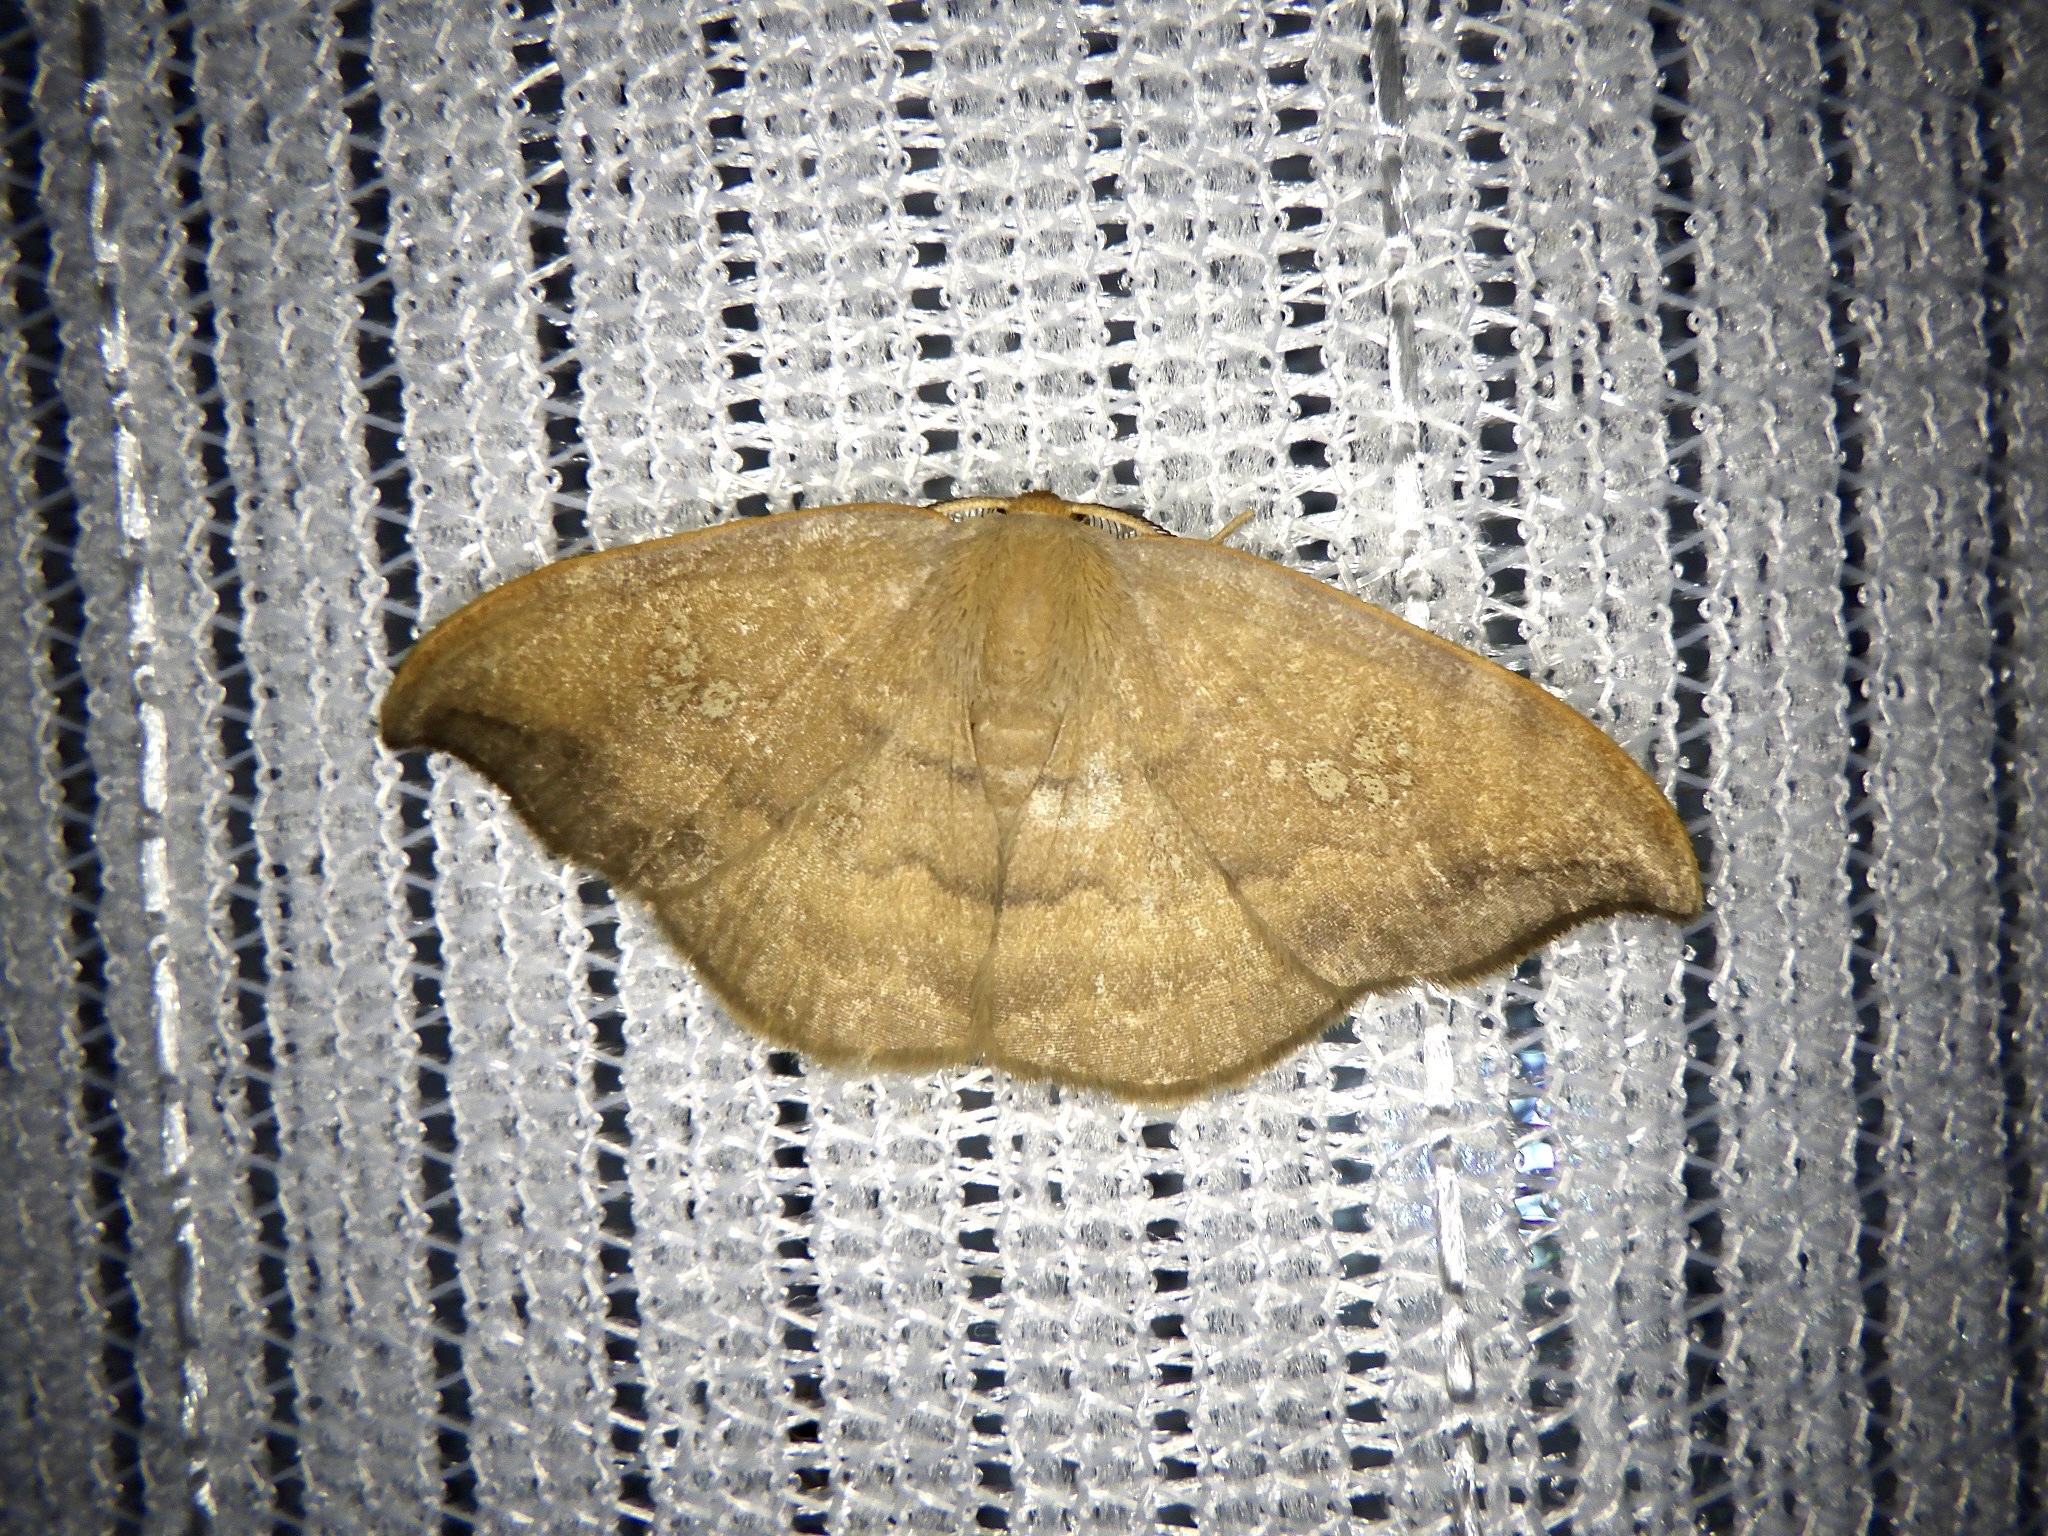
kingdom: Animalia
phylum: Arthropoda
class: Insecta
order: Lepidoptera
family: Drepanidae
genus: Agnidra
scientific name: Agnidra scabiosa
